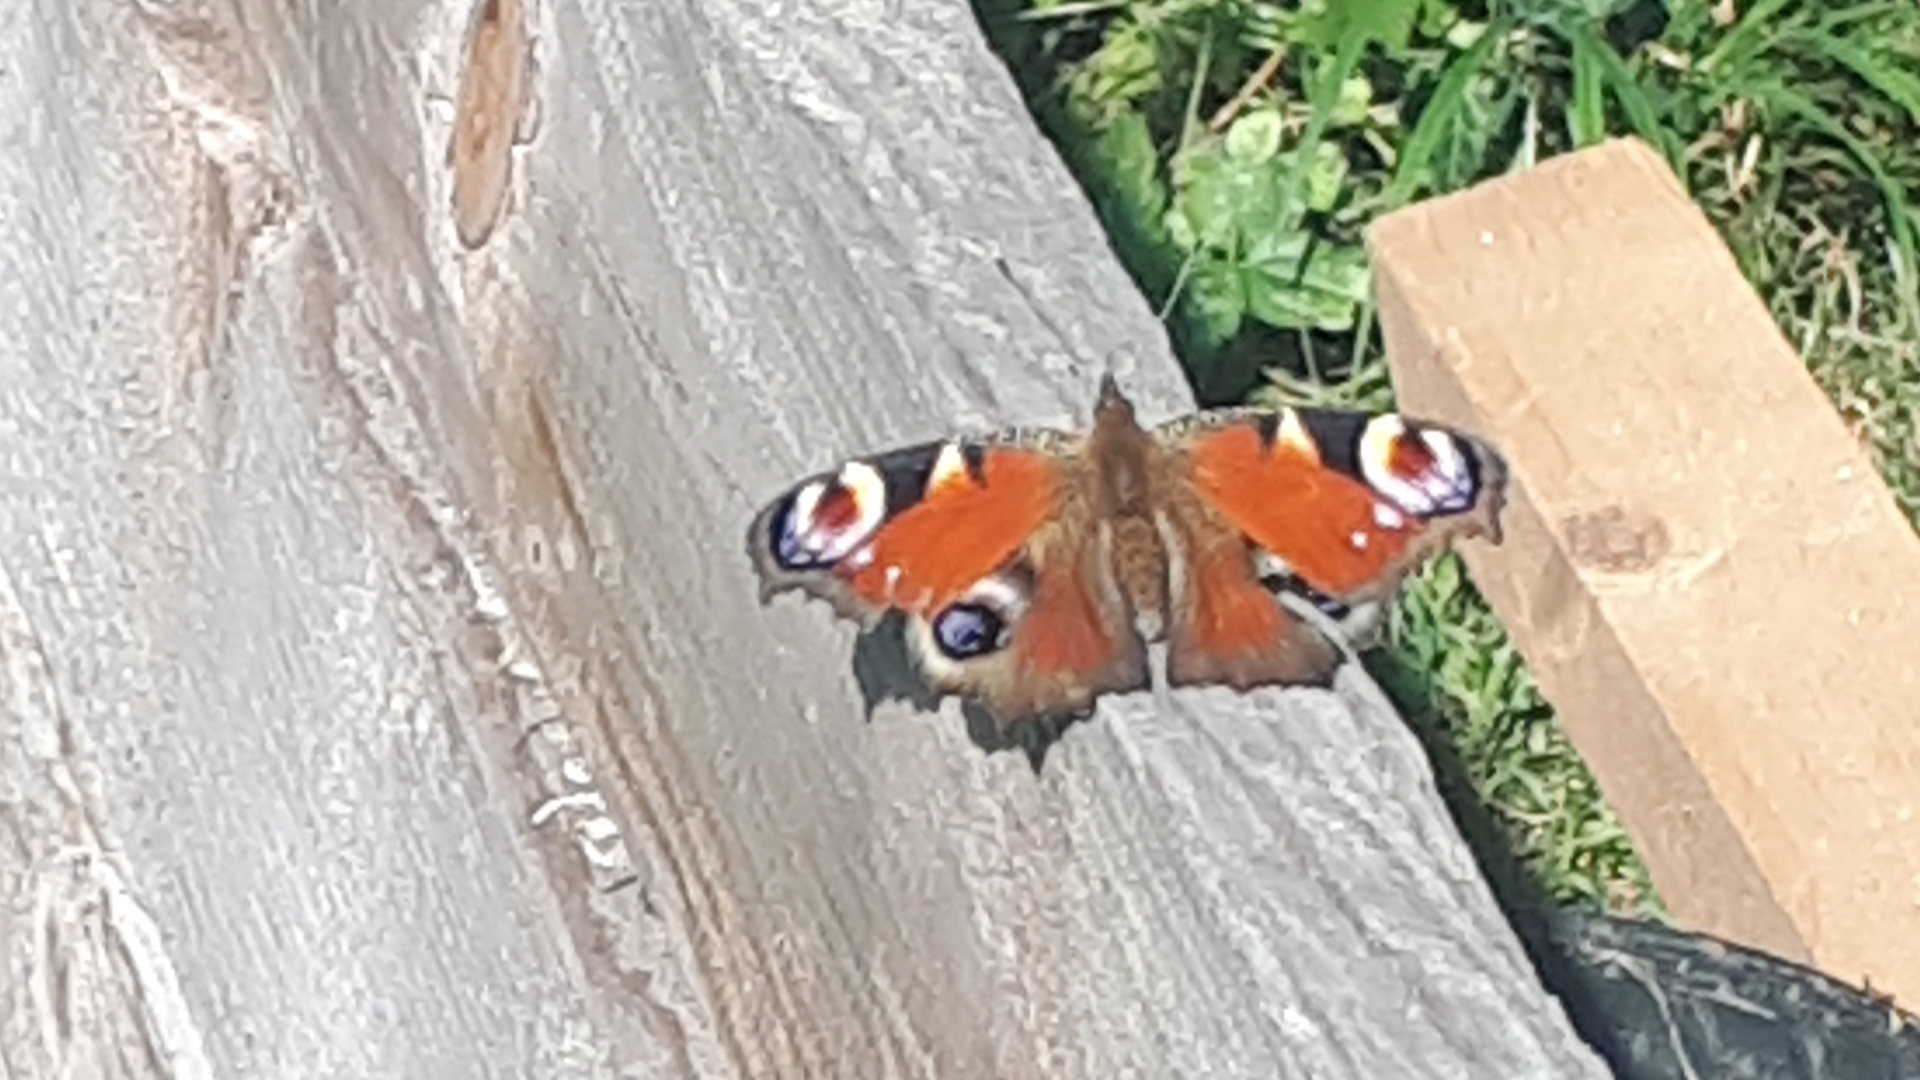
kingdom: Animalia
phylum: Arthropoda
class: Insecta
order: Lepidoptera
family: Nymphalidae
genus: Aglais
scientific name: Aglais io
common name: Peacock
